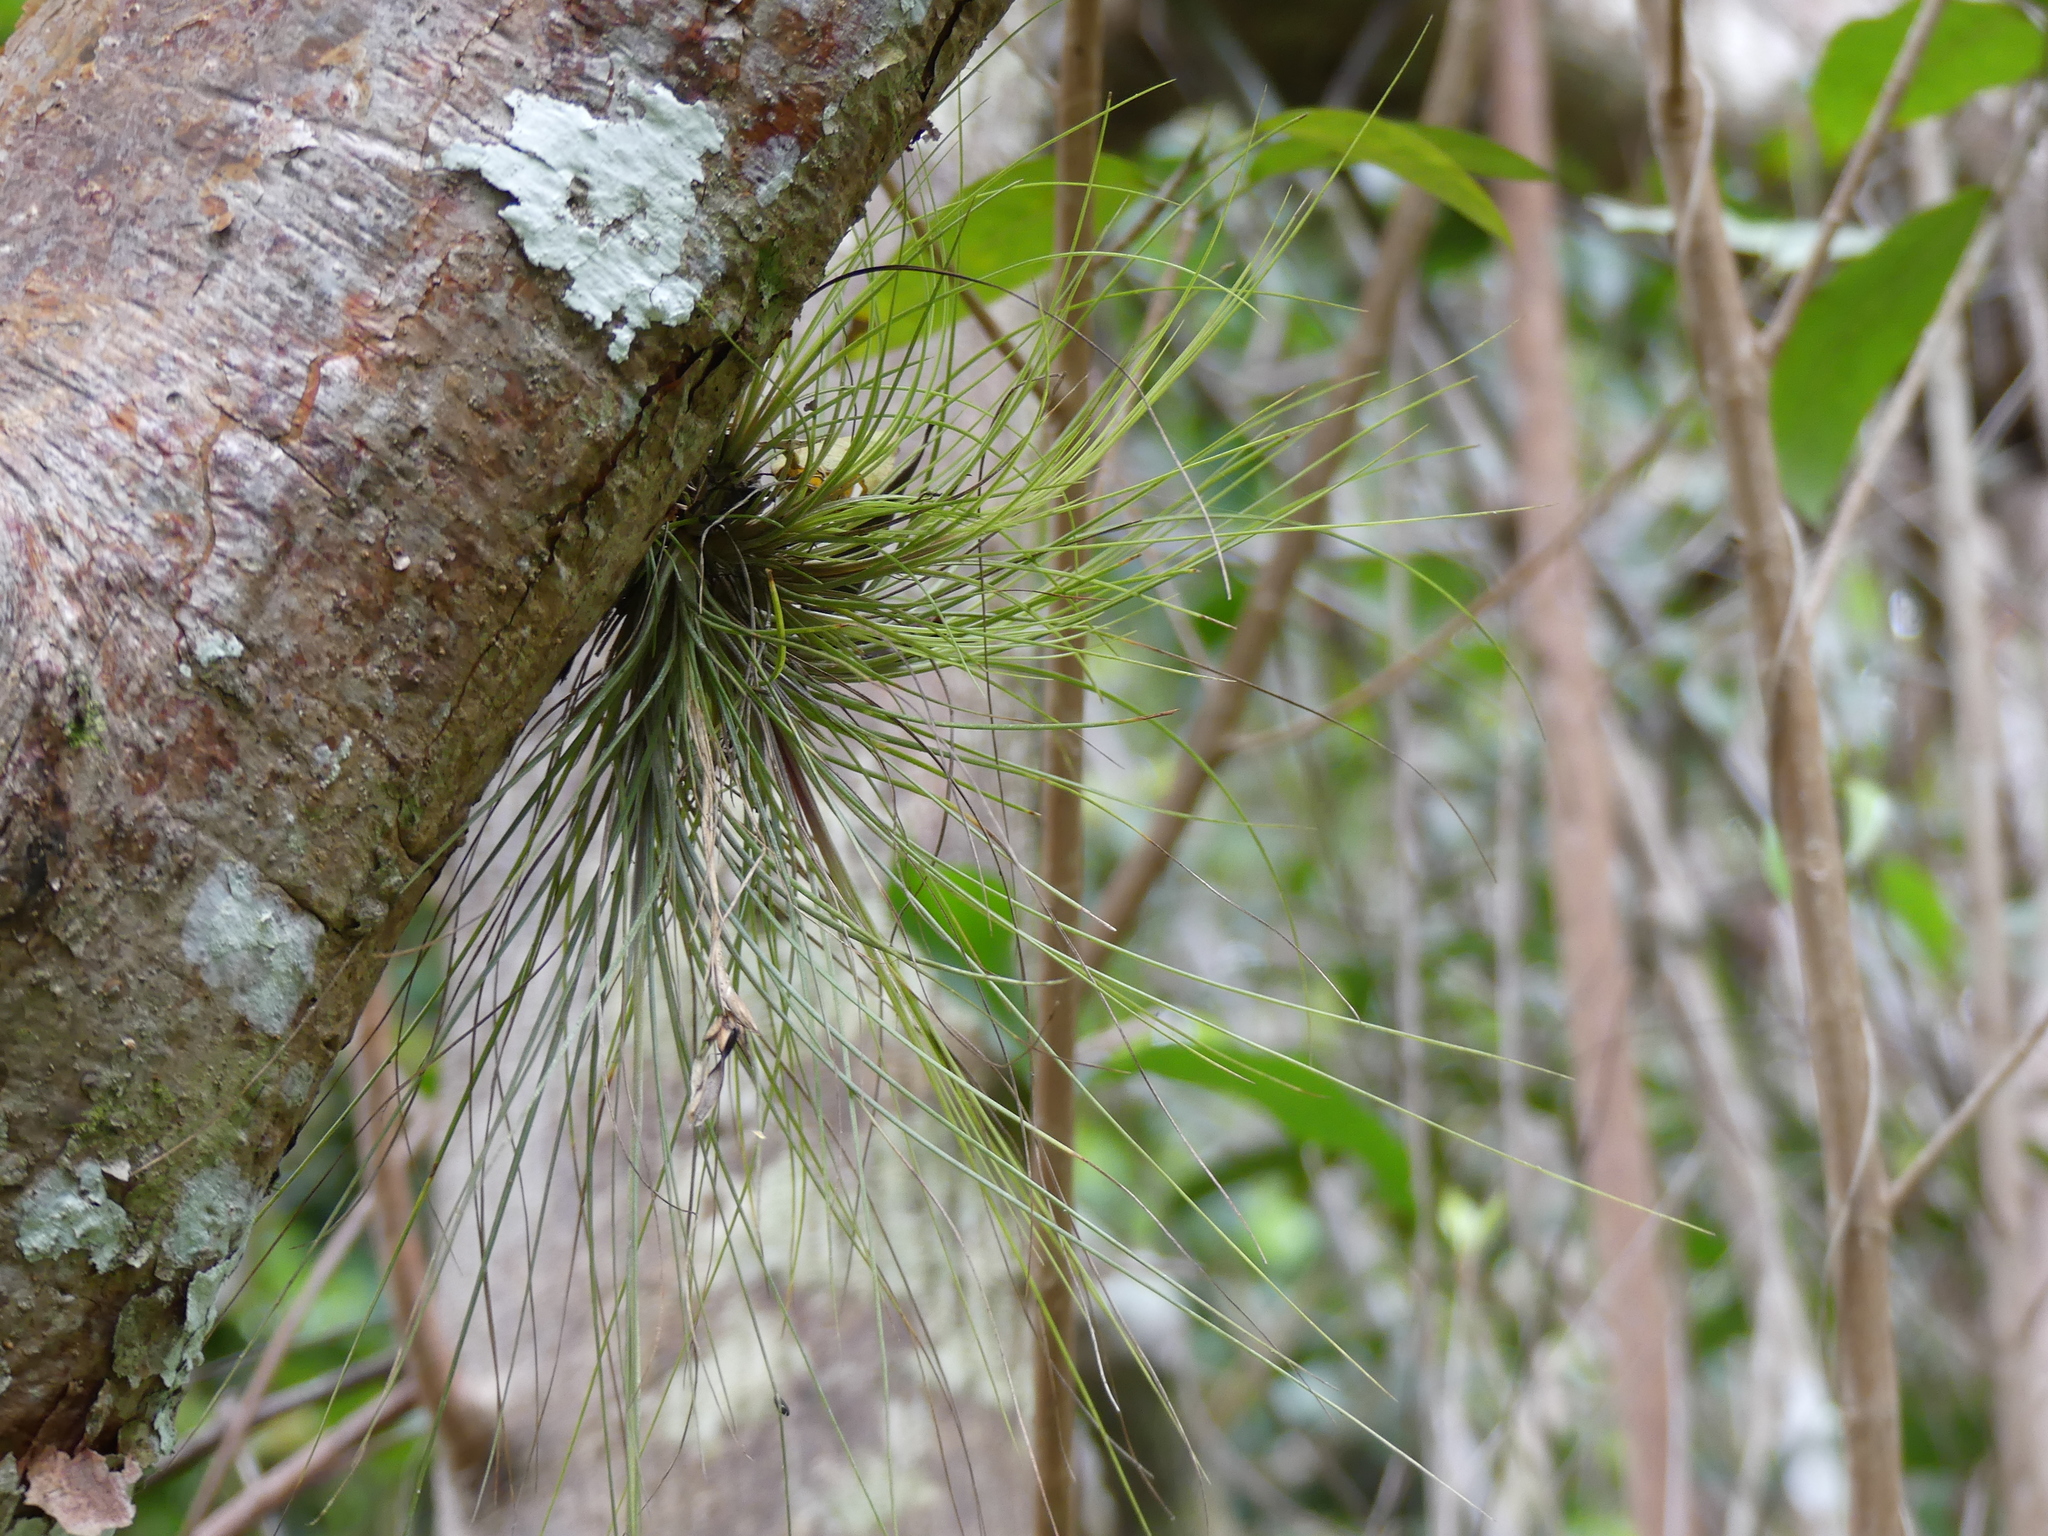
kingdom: Plantae
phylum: Tracheophyta
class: Liliopsida
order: Poales
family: Bromeliaceae
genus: Tillandsia
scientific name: Tillandsia setacea
